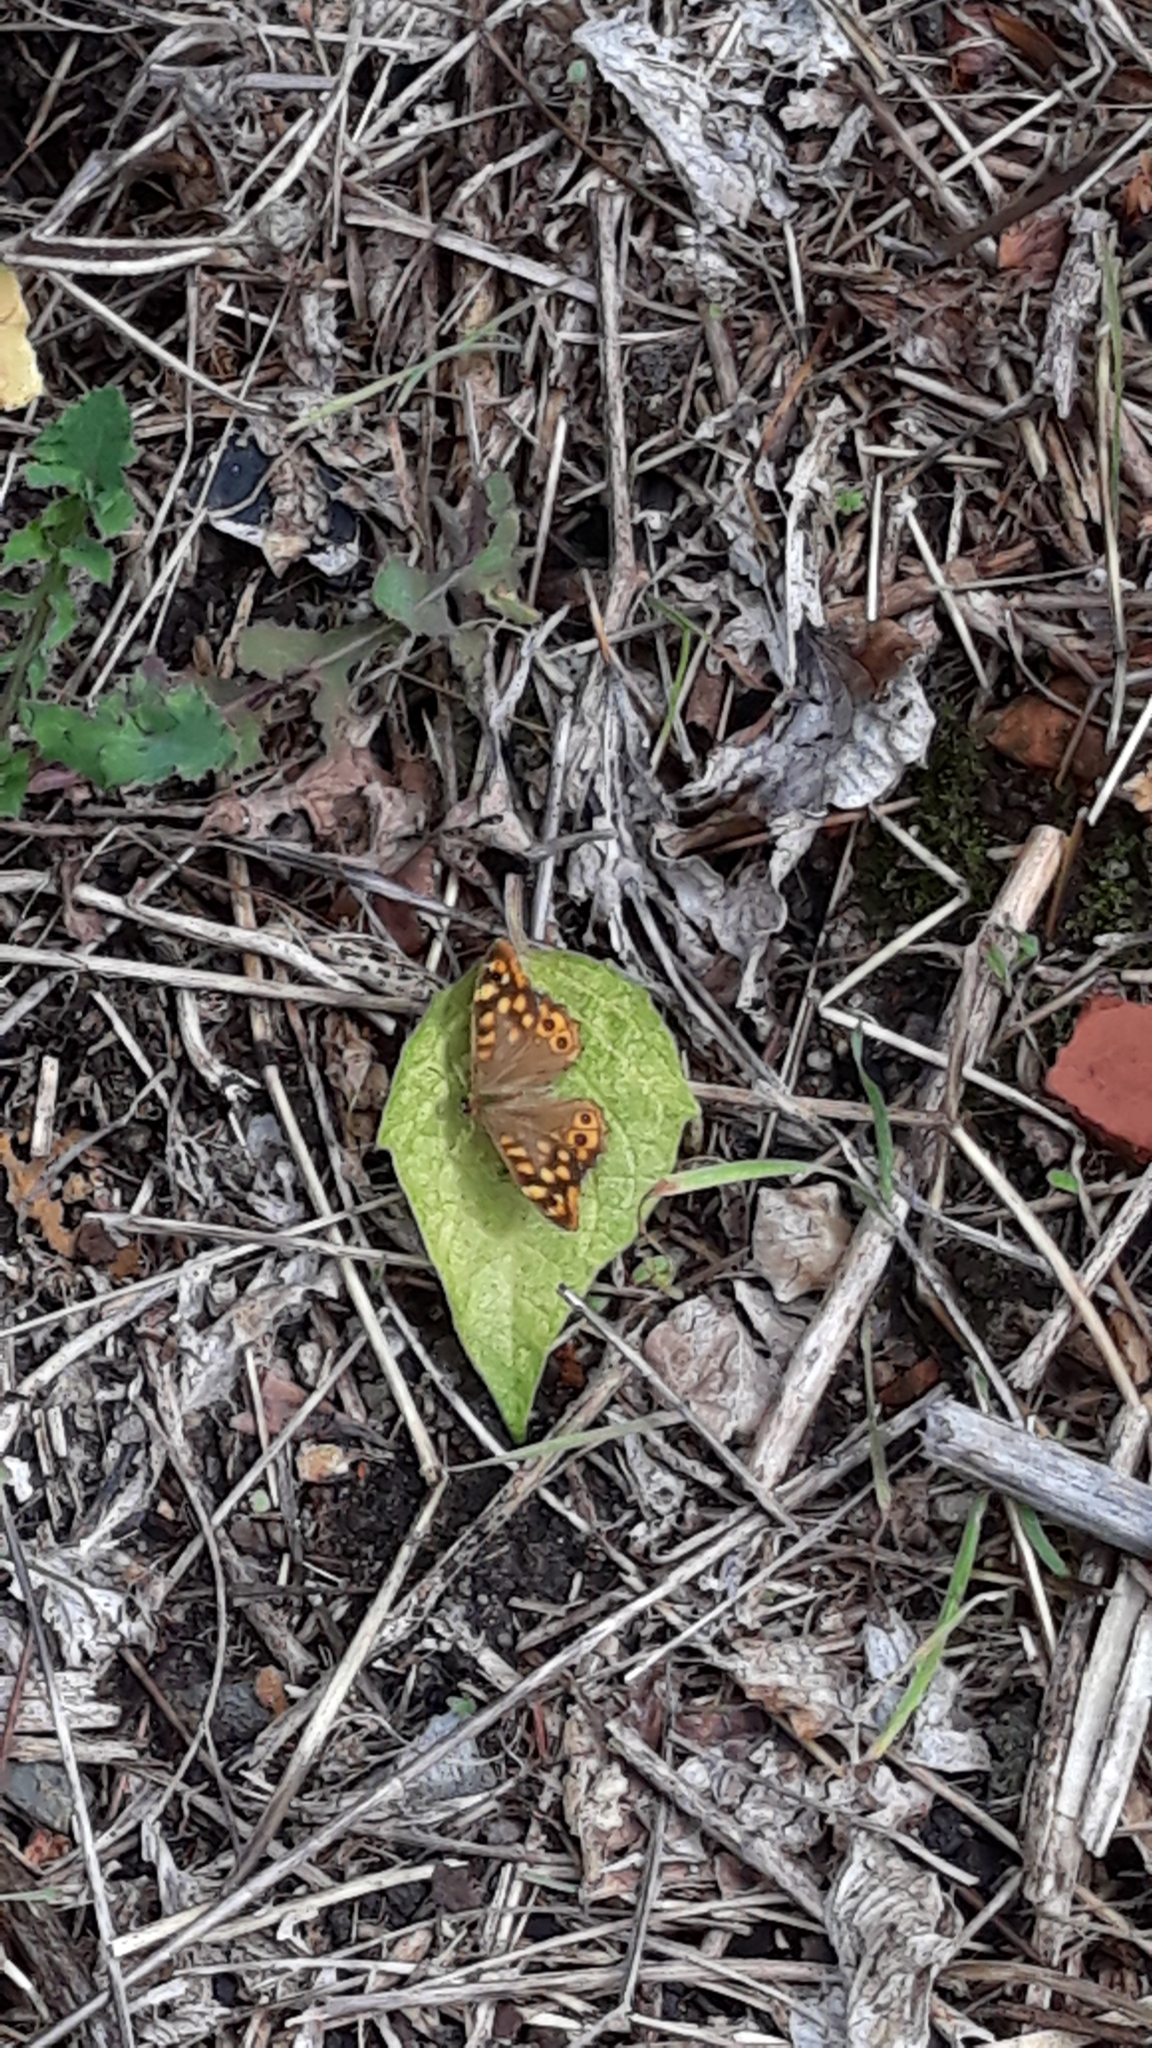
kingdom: Animalia
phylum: Arthropoda
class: Insecta
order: Lepidoptera
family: Nymphalidae
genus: Pararge
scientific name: Pararge aegeria
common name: Speckled wood
